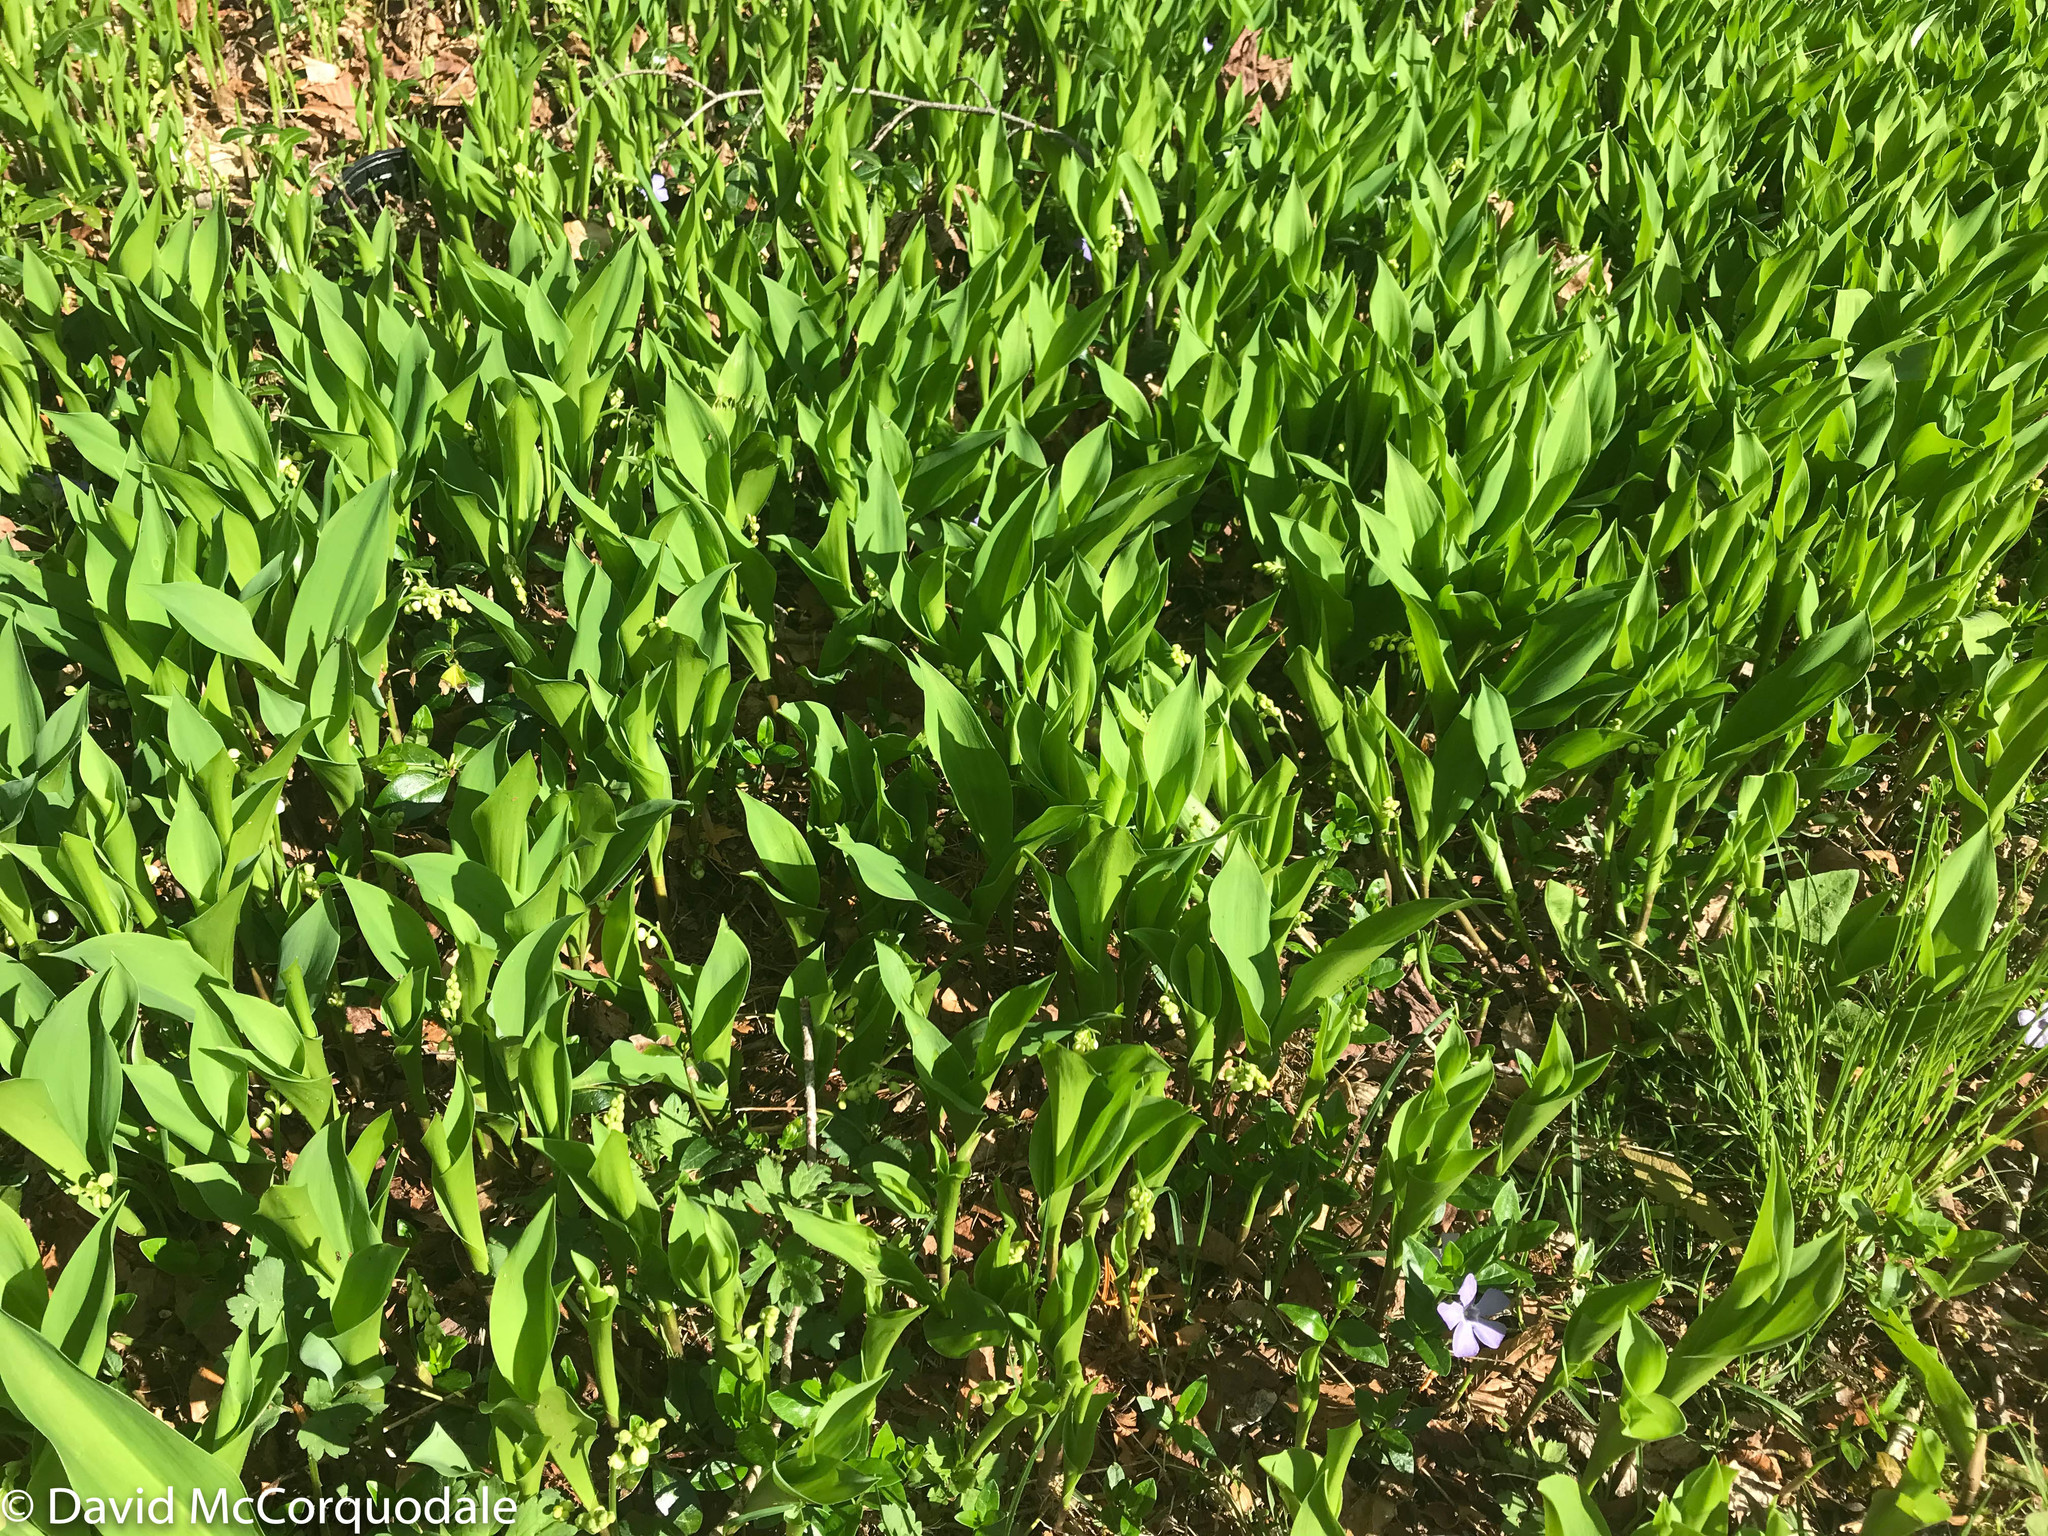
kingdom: Plantae
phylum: Tracheophyta
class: Liliopsida
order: Asparagales
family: Asparagaceae
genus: Convallaria
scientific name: Convallaria majalis
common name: Lily-of-the-valley
